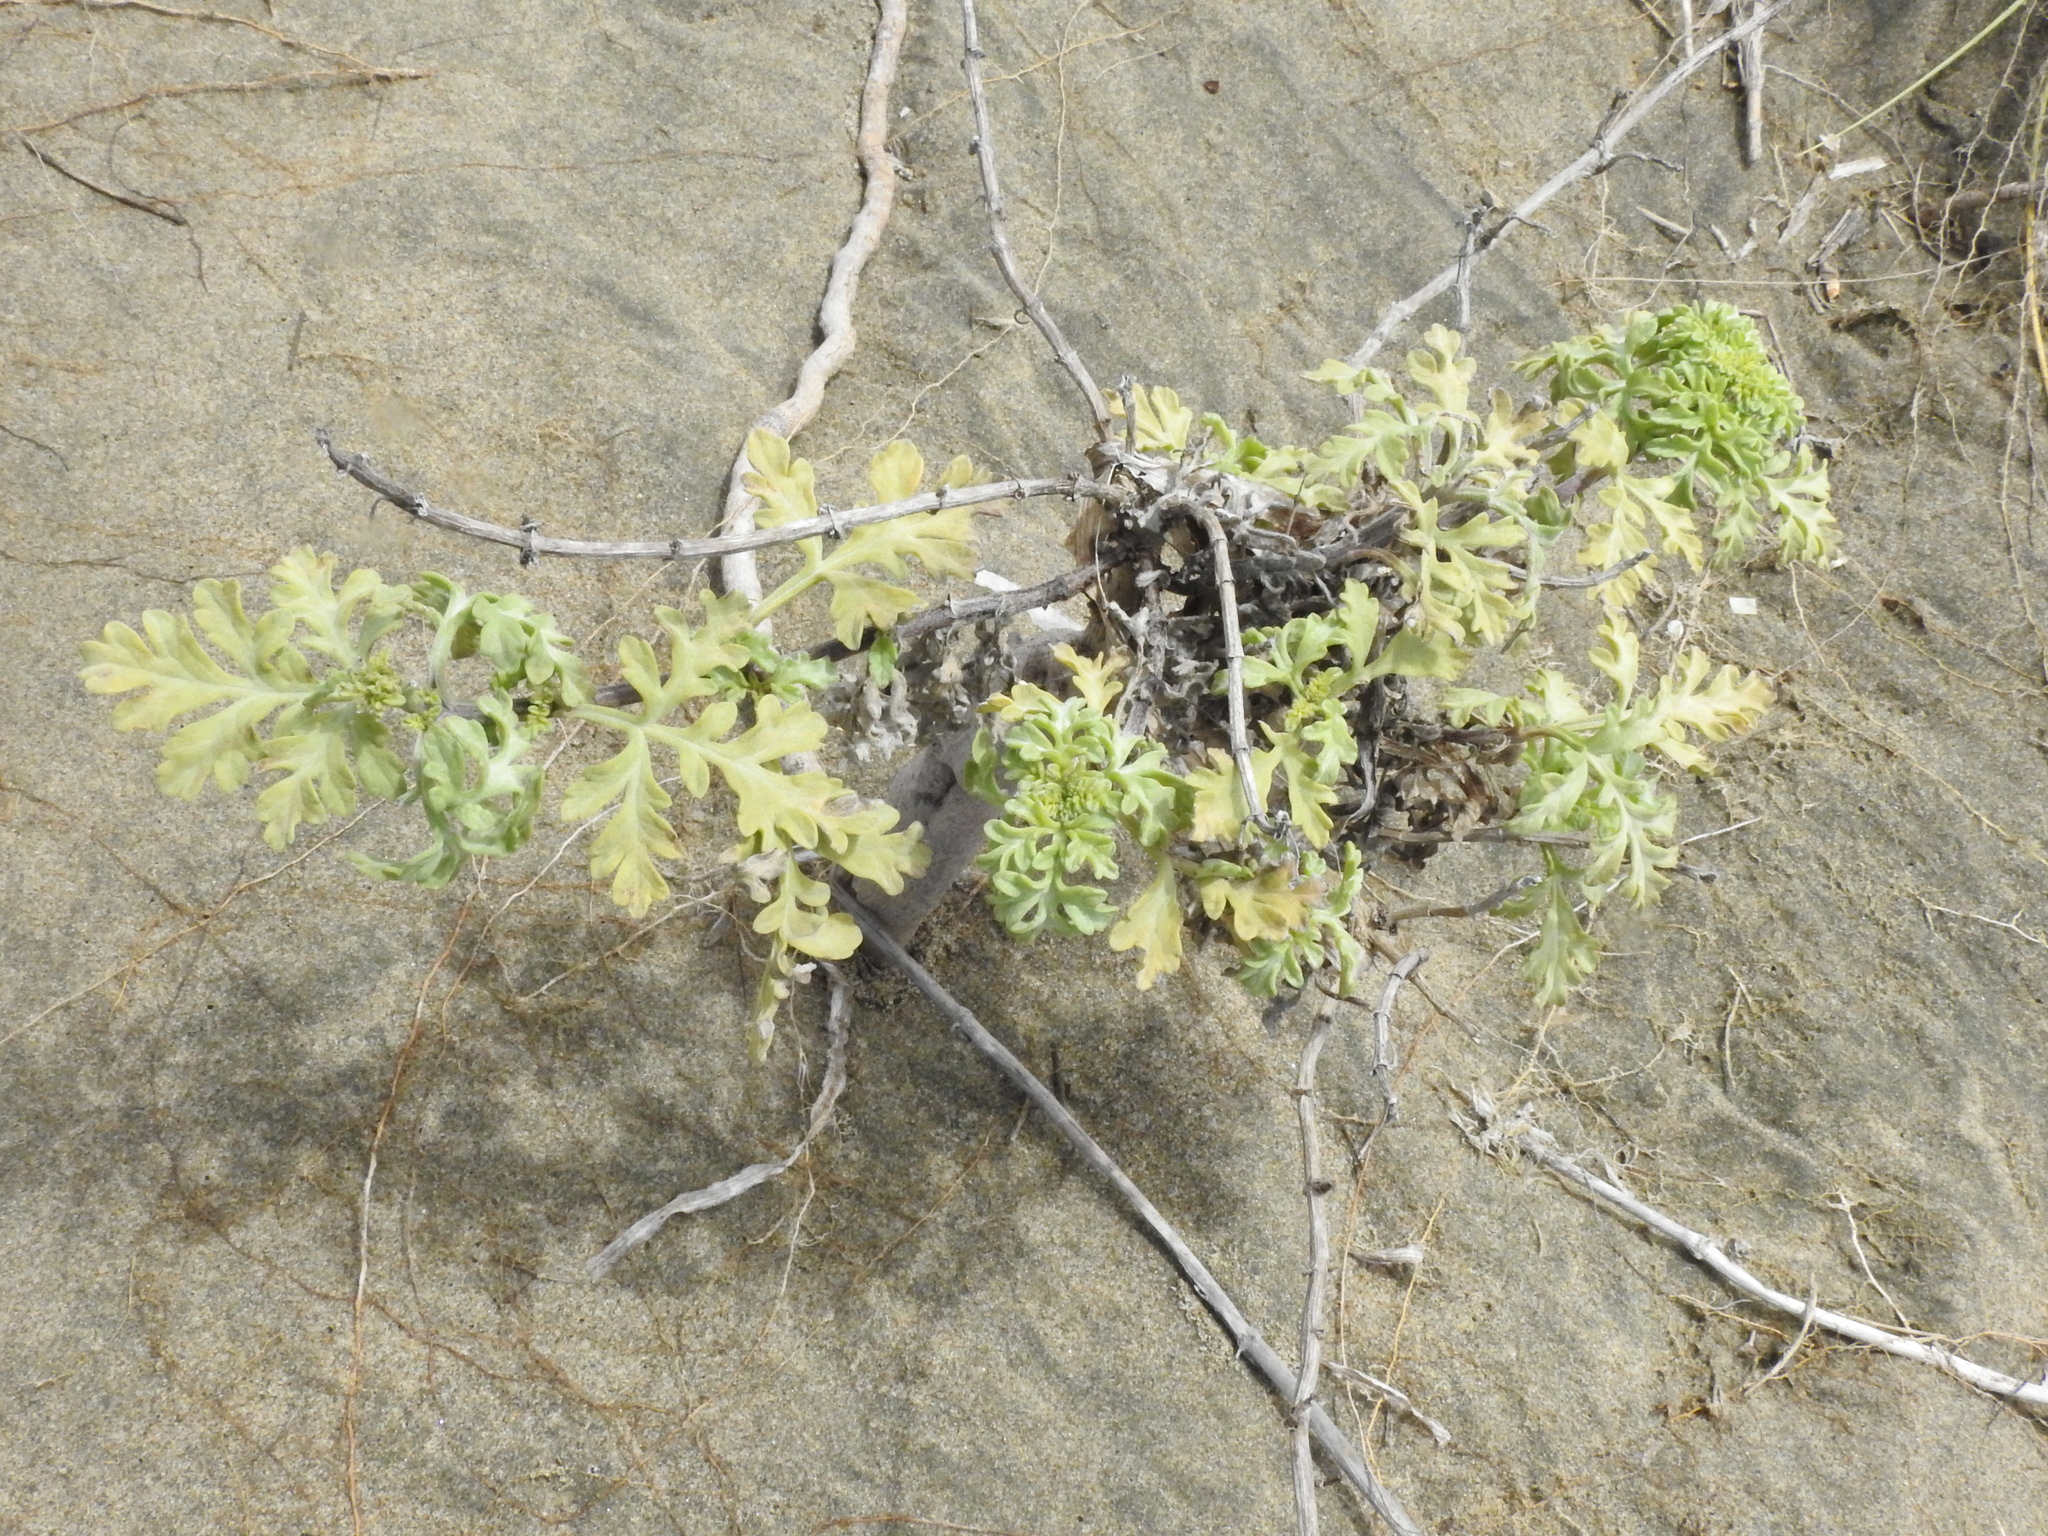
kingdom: Plantae
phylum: Tracheophyta
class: Magnoliopsida
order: Asterales
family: Asteraceae
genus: Ambrosia
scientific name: Ambrosia chamissonis
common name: Beachbur
